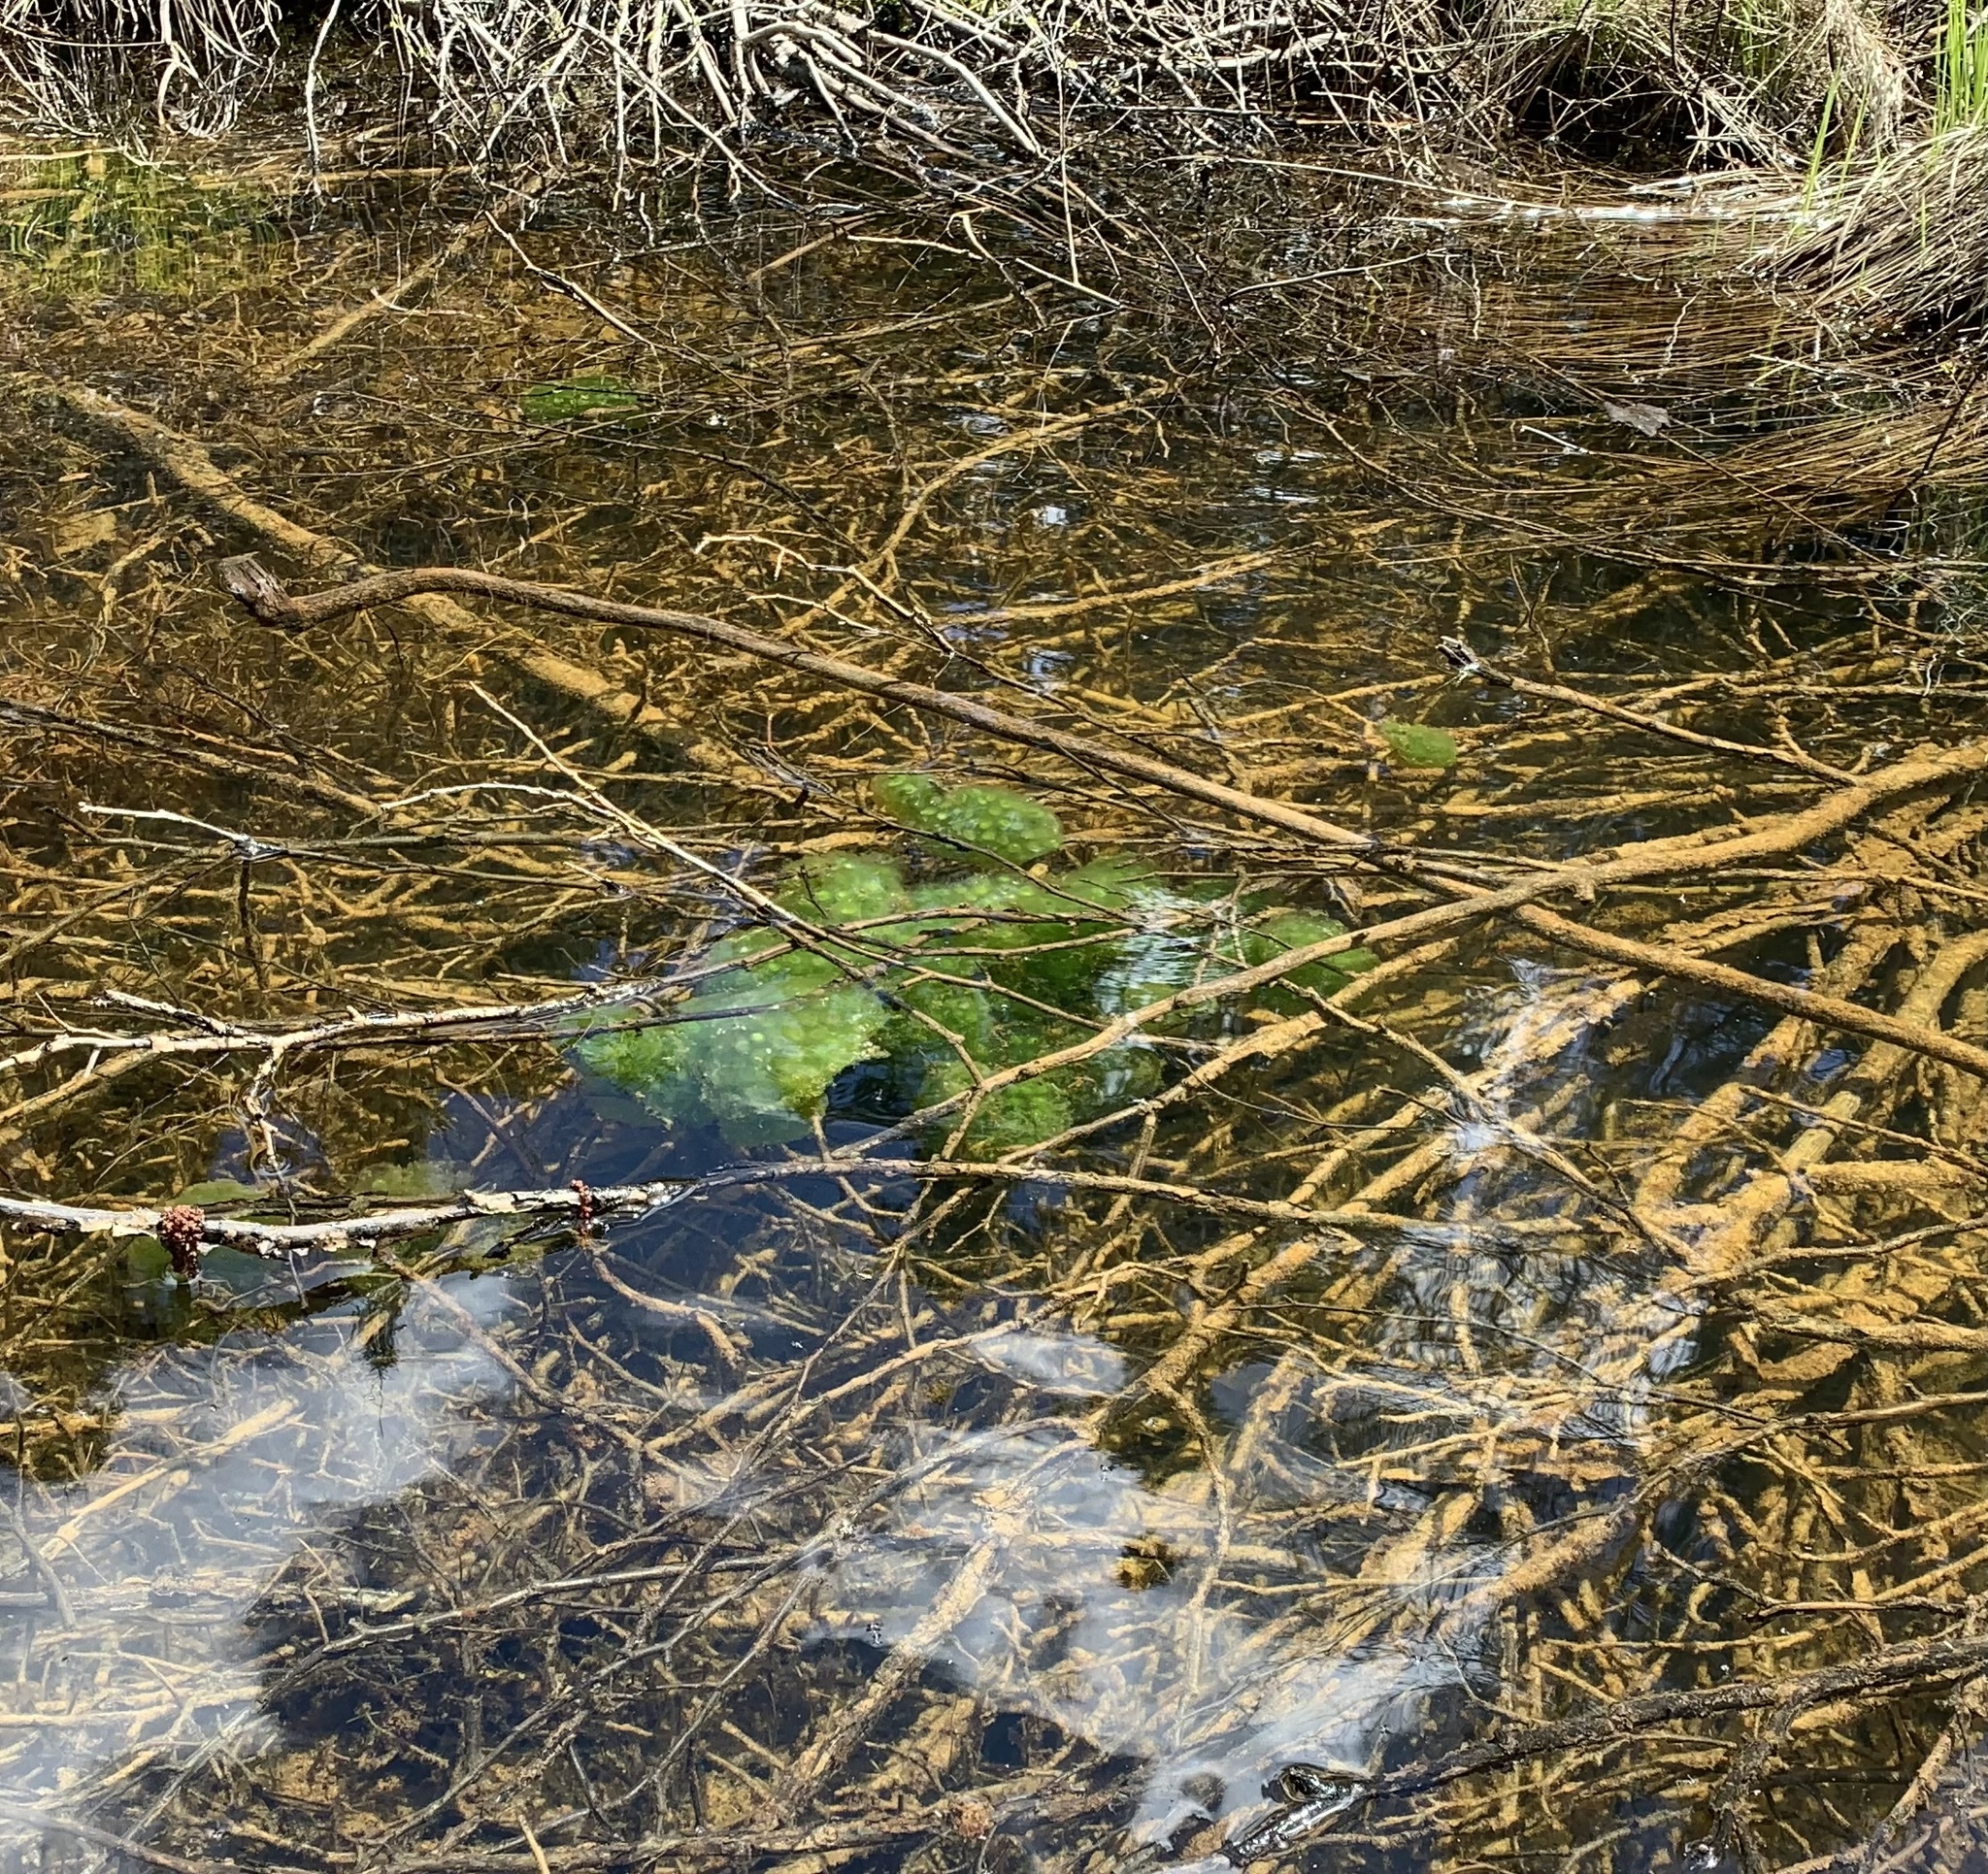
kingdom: Animalia
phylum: Chordata
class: Amphibia
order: Caudata
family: Ambystomatidae
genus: Ambystoma
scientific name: Ambystoma maculatum
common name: Spotted salamander
